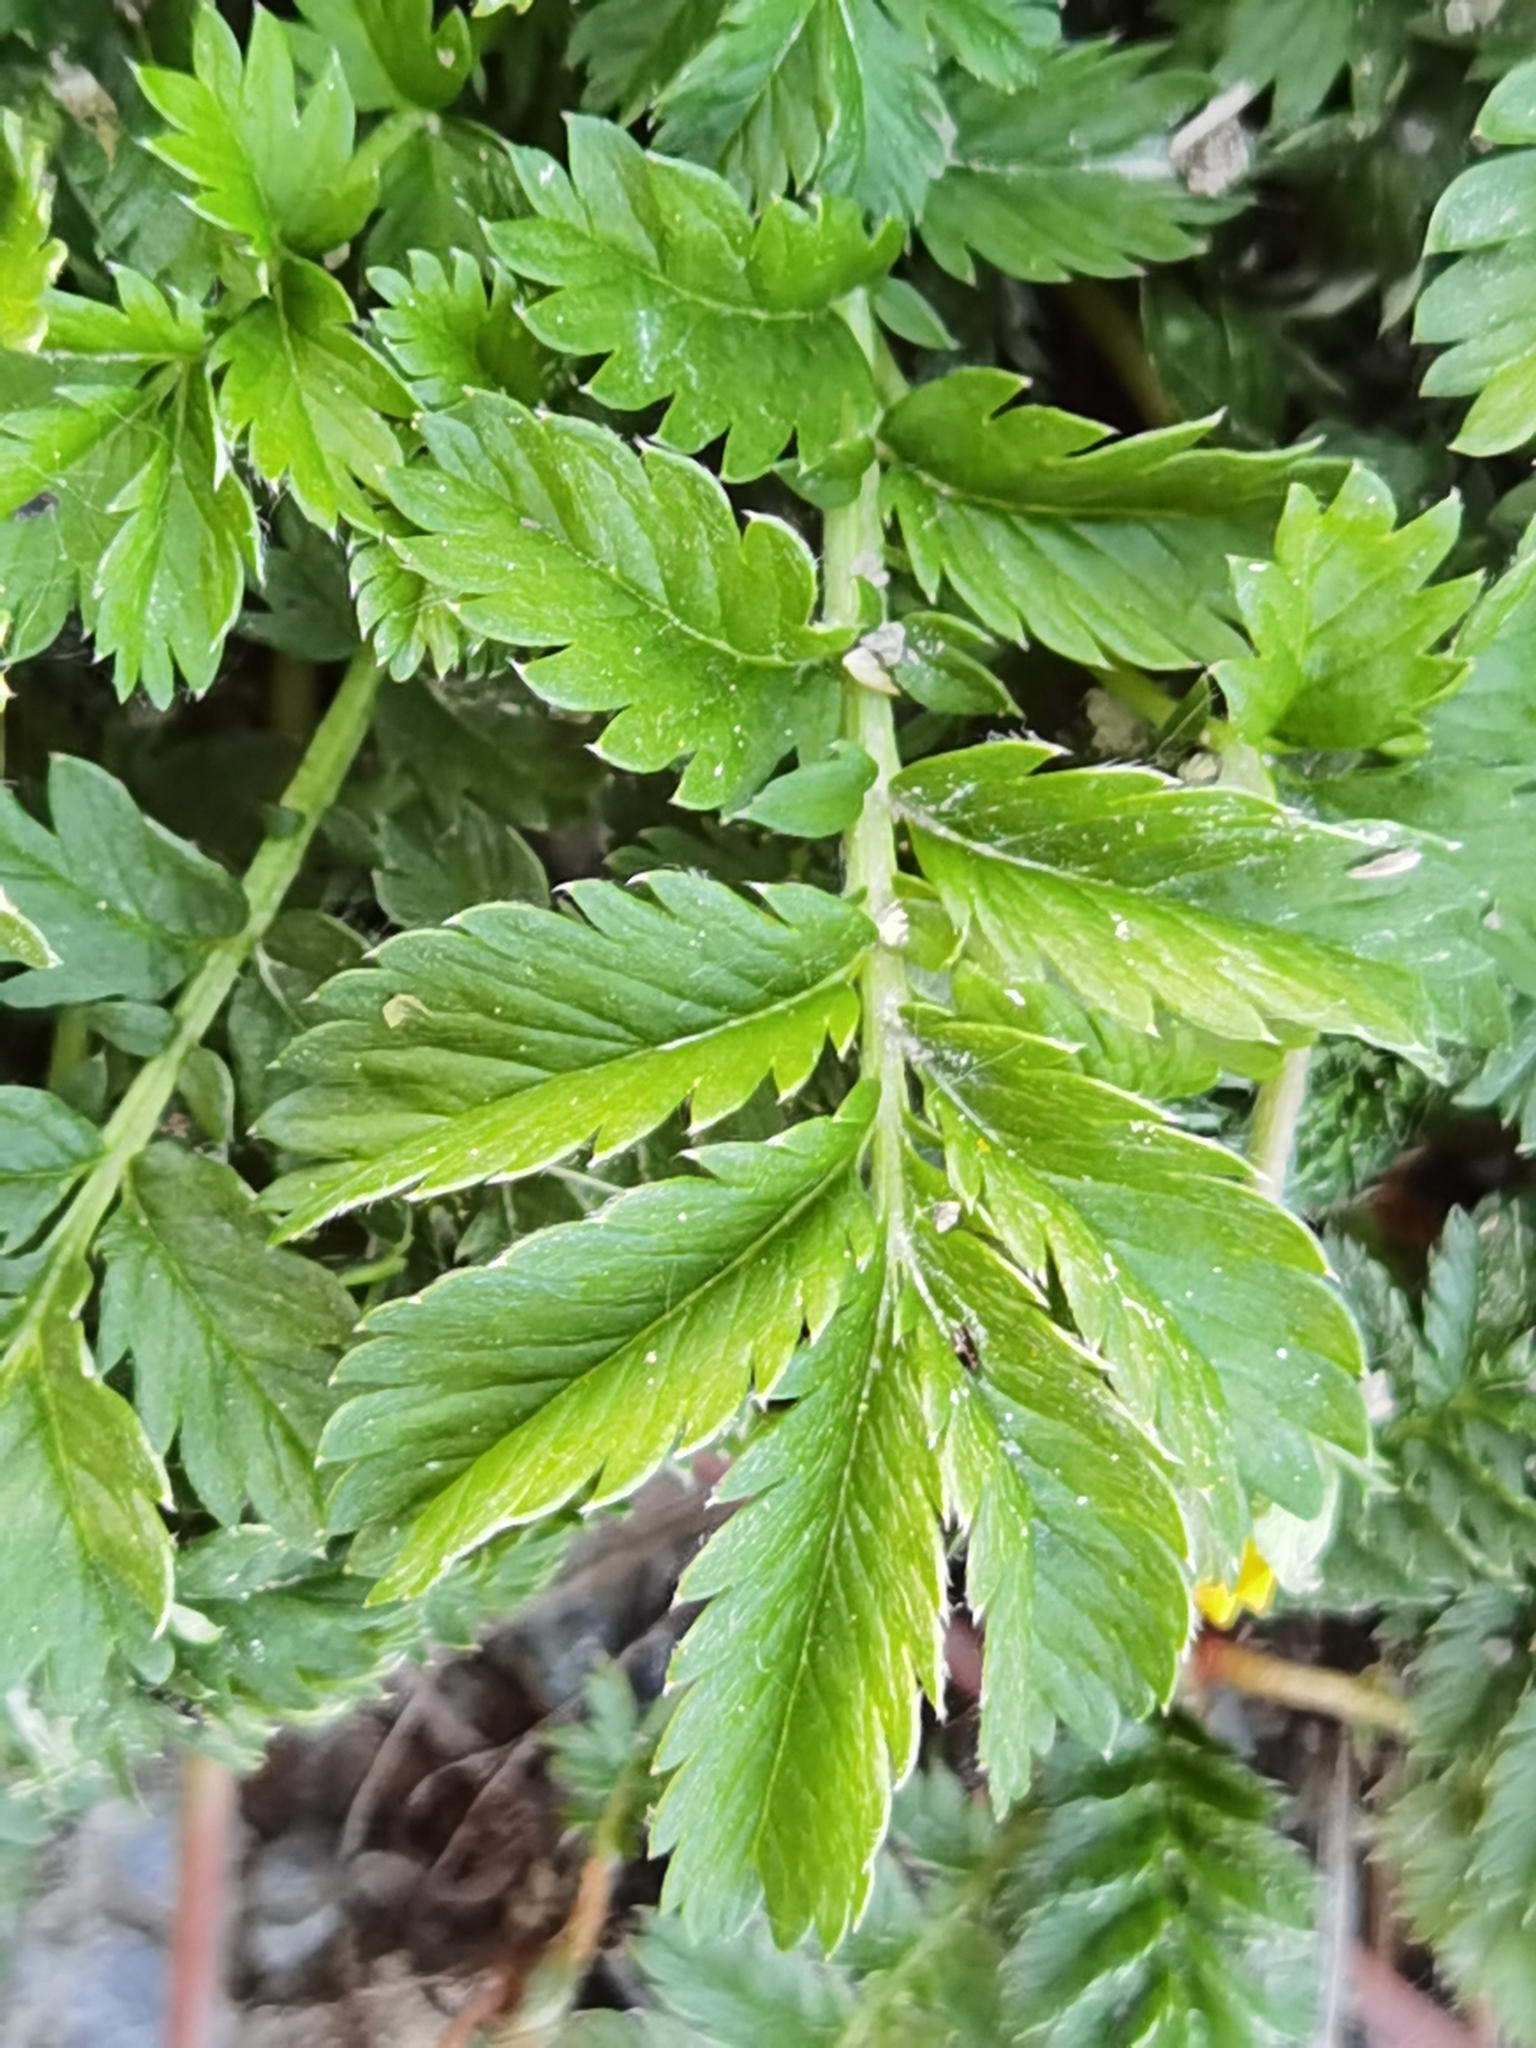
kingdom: Plantae
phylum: Tracheophyta
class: Magnoliopsida
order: Rosales
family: Rosaceae
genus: Argentina
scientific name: Argentina anserina
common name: Common silverweed
